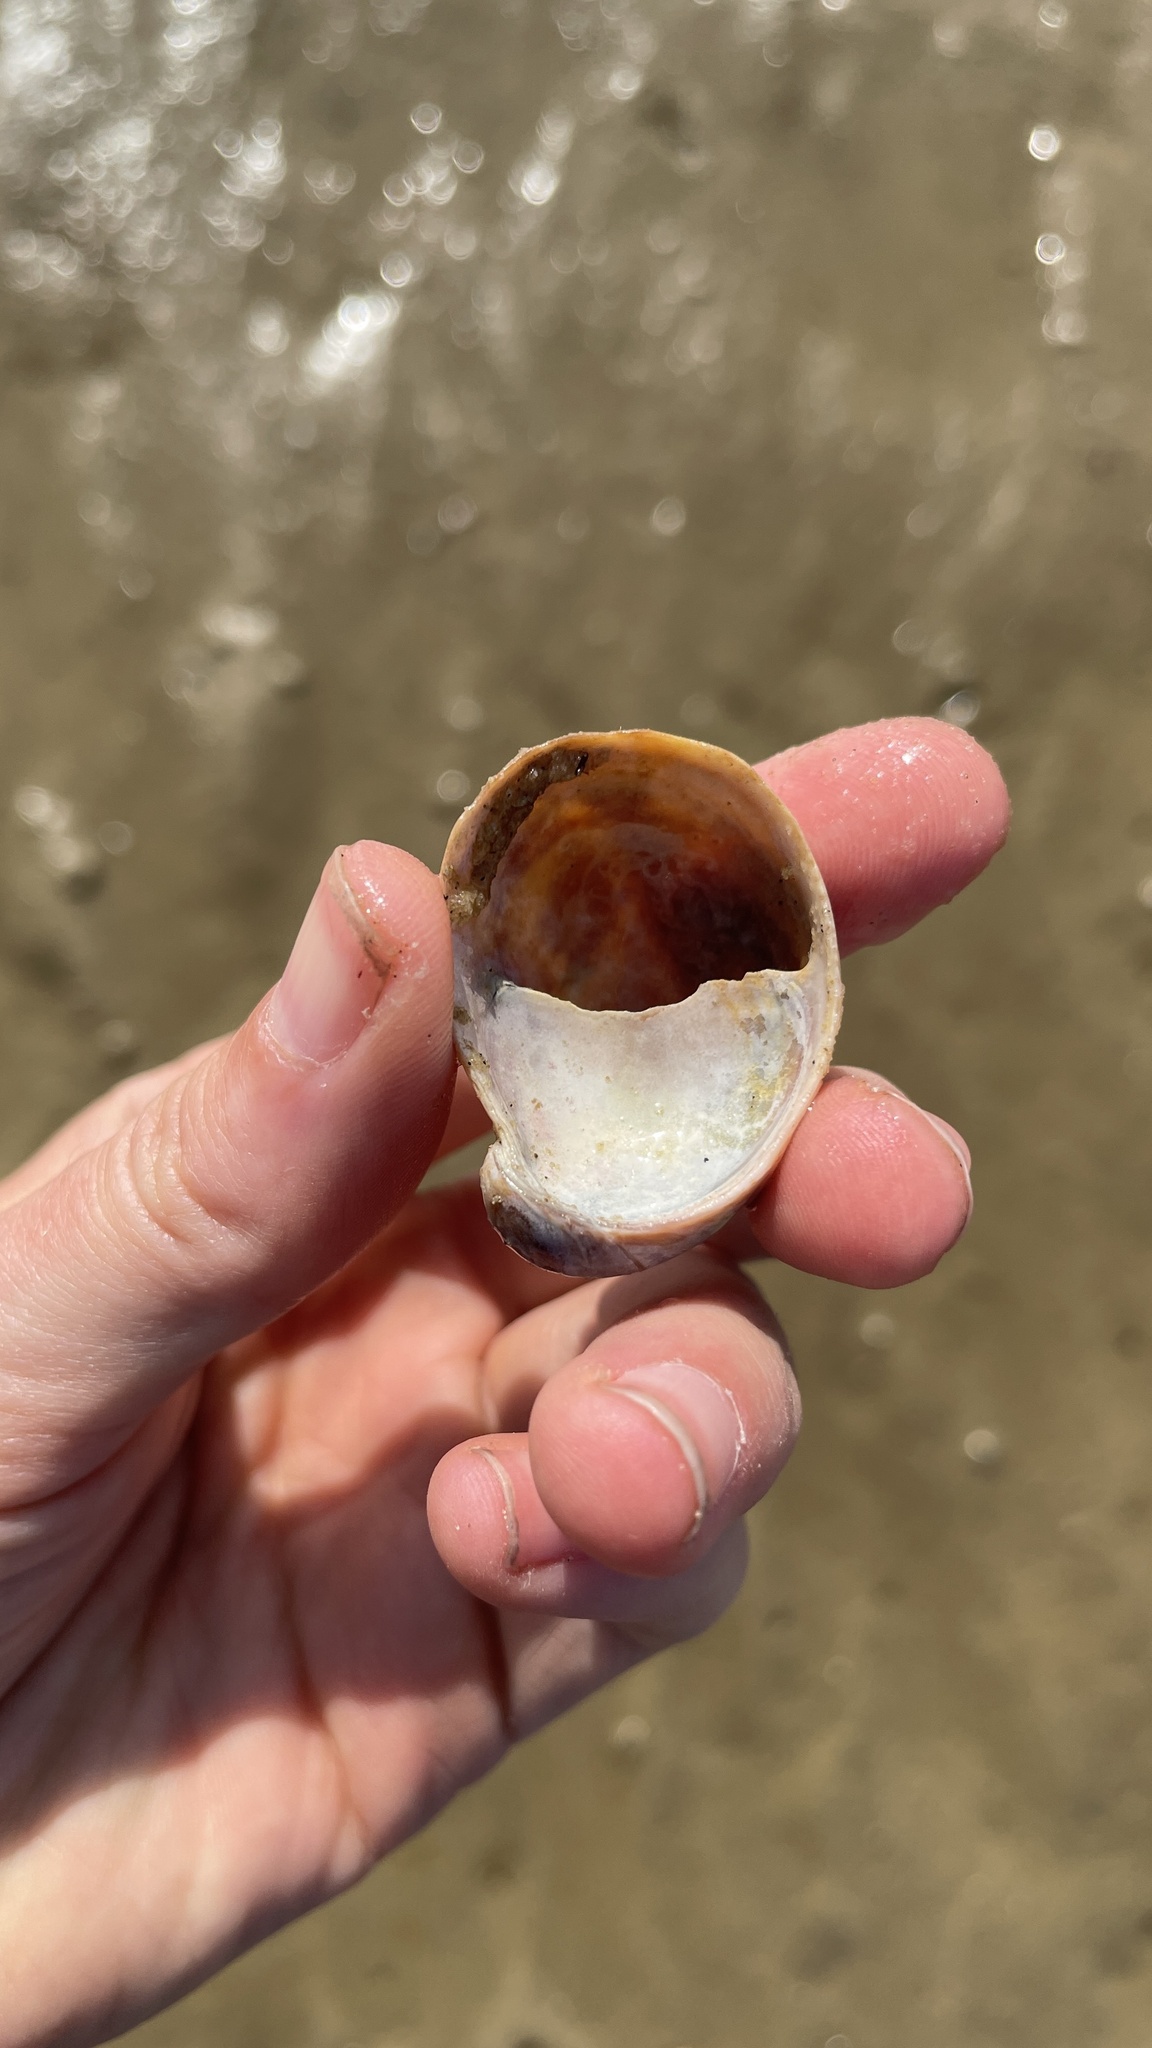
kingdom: Animalia
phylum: Mollusca
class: Gastropoda
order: Littorinimorpha
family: Calyptraeidae
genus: Crepidula
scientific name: Crepidula fornicata
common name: Slipper limpet
